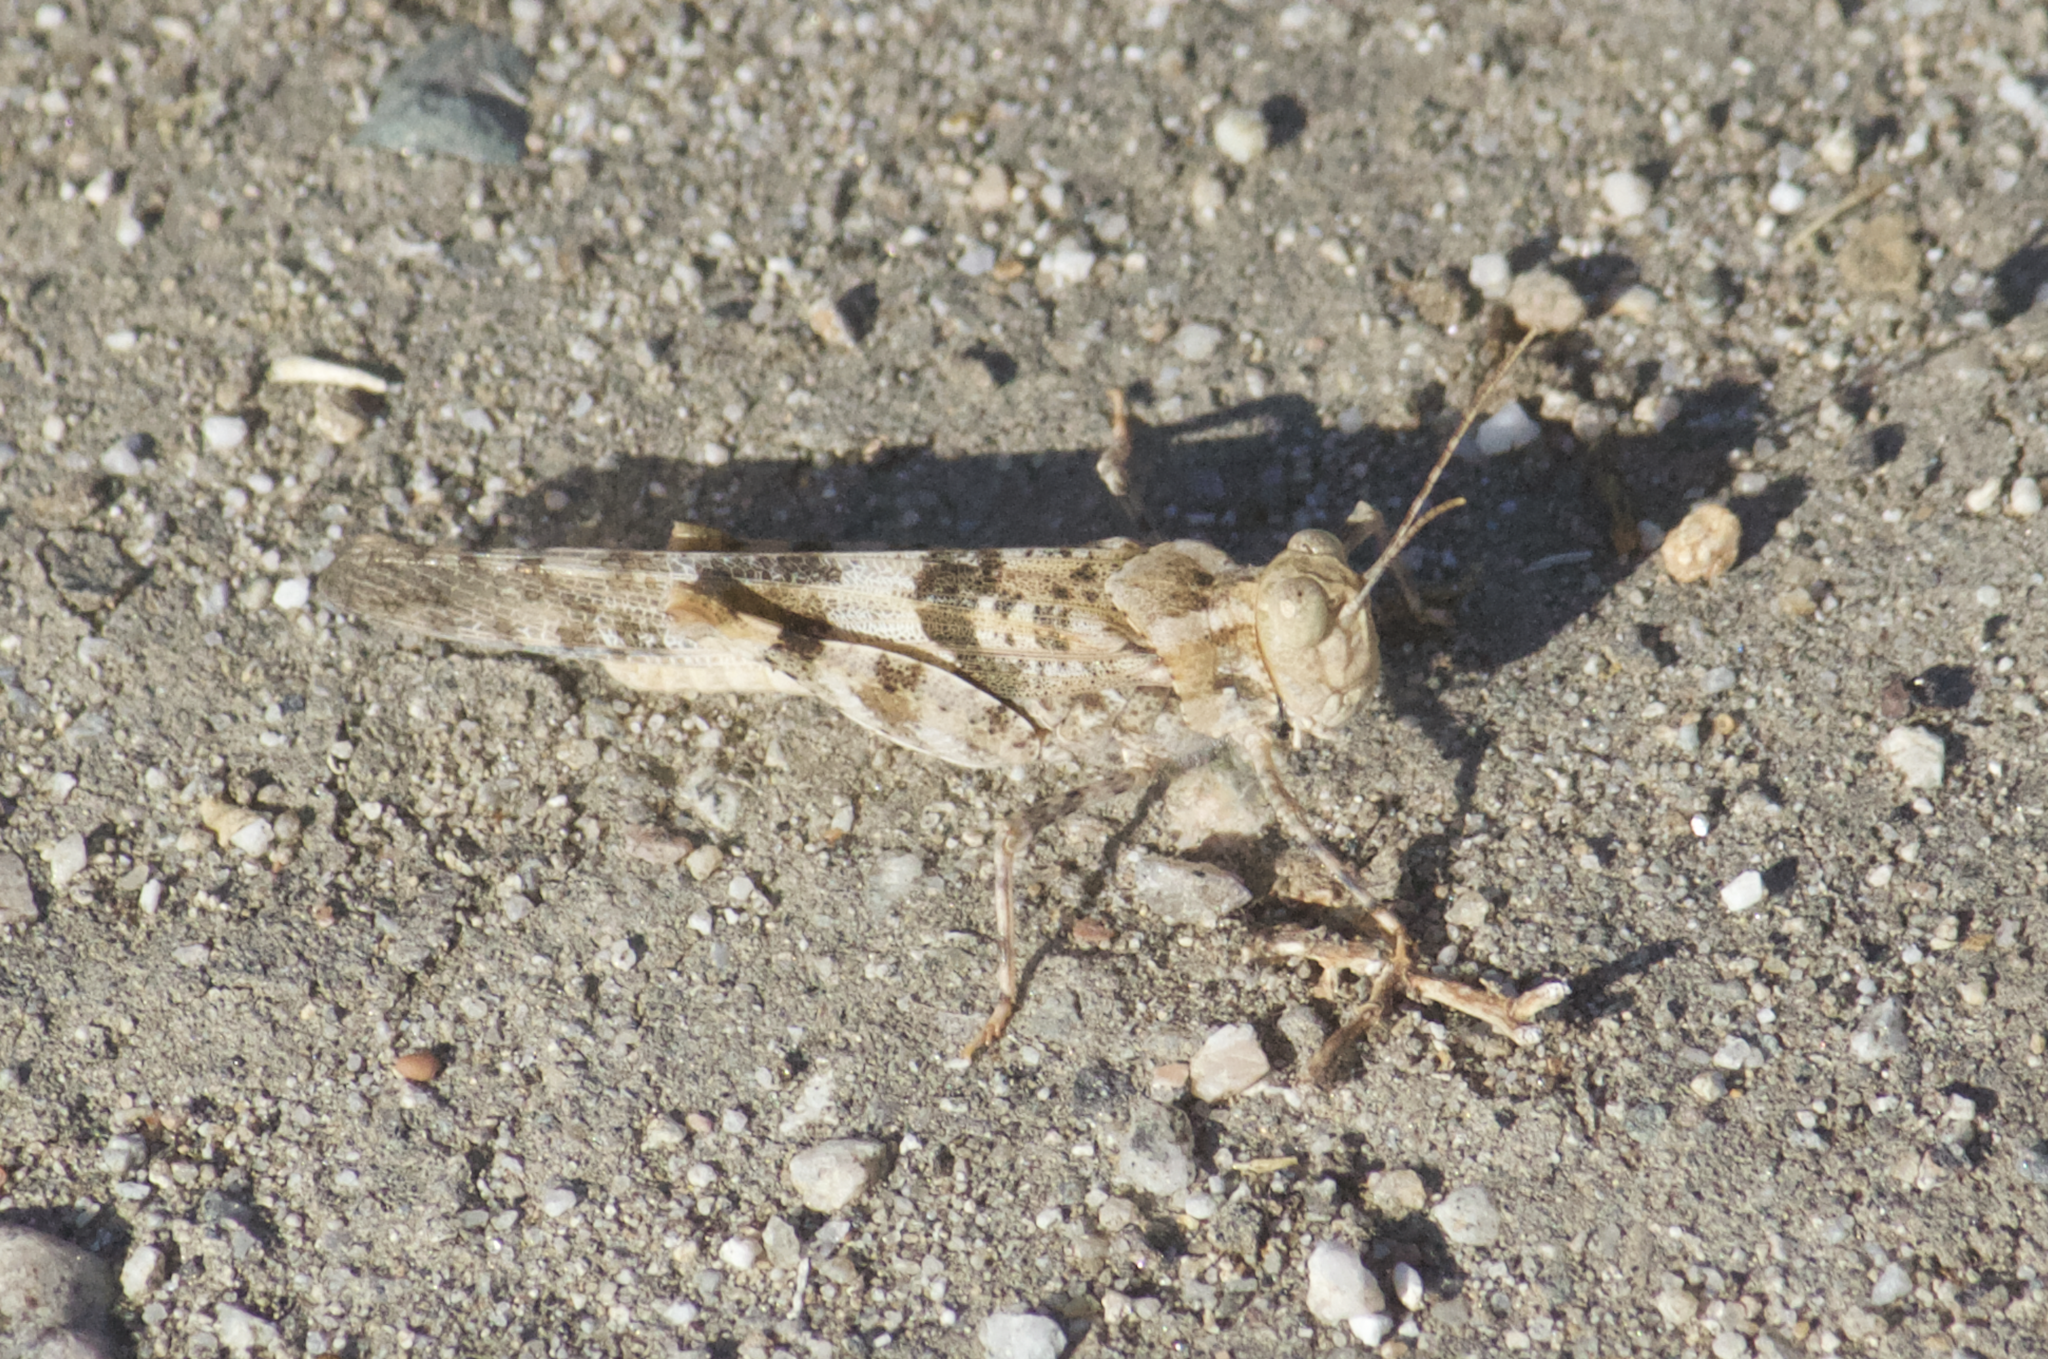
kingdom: Animalia
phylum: Arthropoda
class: Insecta
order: Orthoptera
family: Acrididae
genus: Trimerotropis
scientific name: Trimerotropis pallidipennis
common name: Pallid-winged grasshopper
